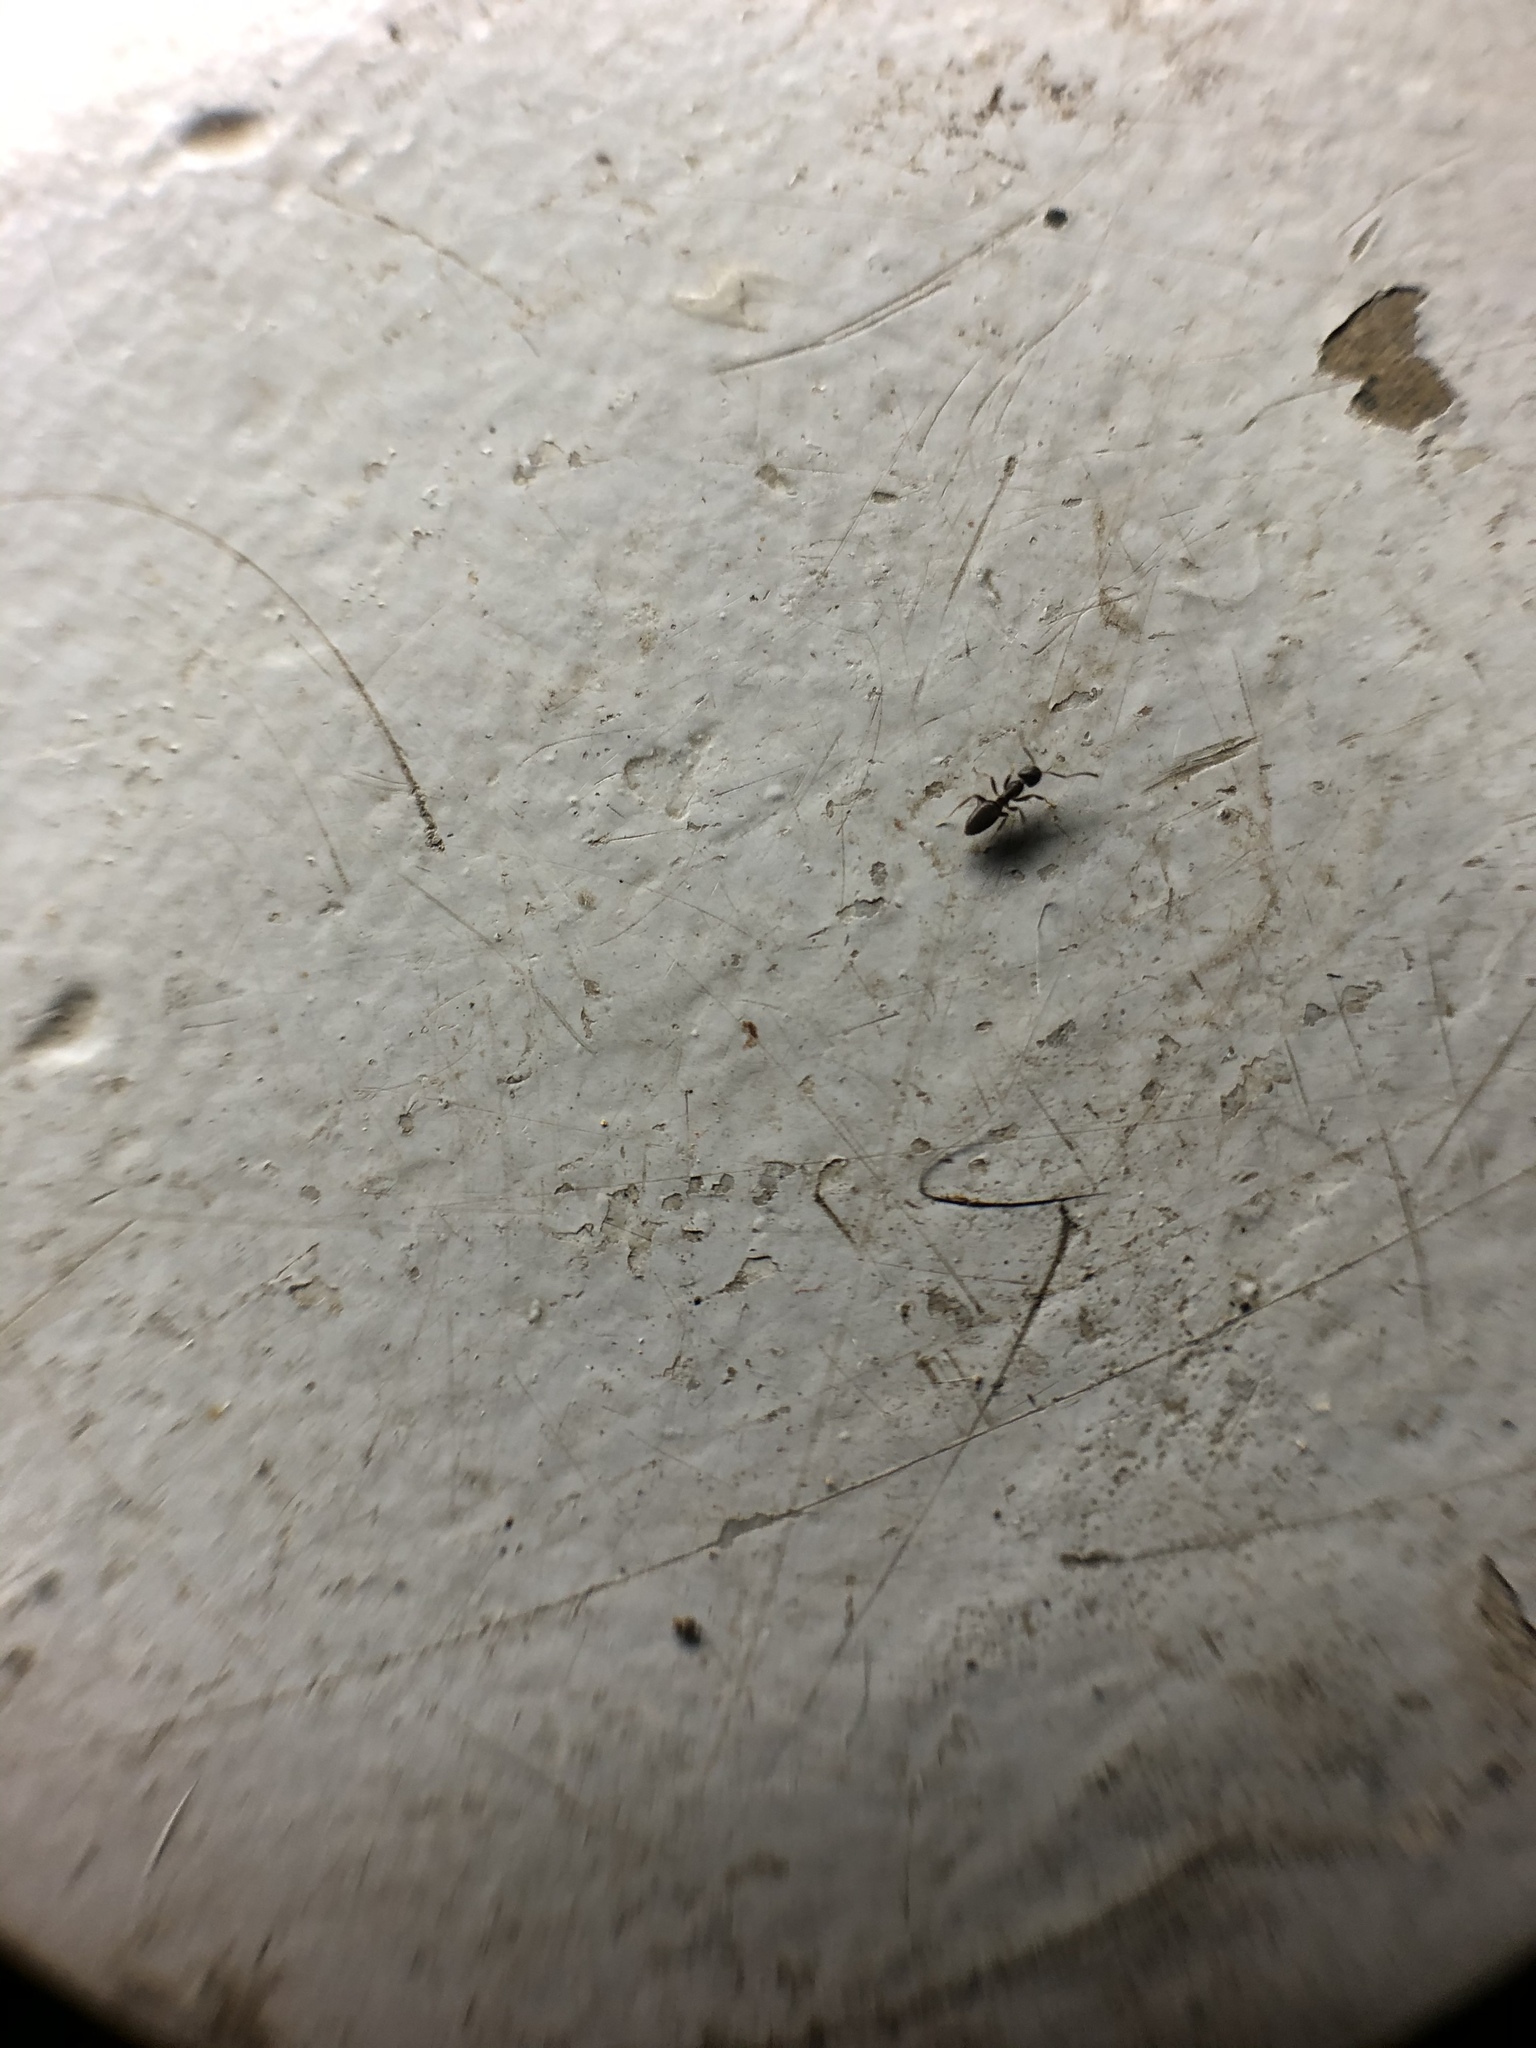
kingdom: Animalia
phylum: Arthropoda
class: Insecta
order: Hymenoptera
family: Formicidae
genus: Tapinoma
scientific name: Tapinoma sessile
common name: Odorous house ant
